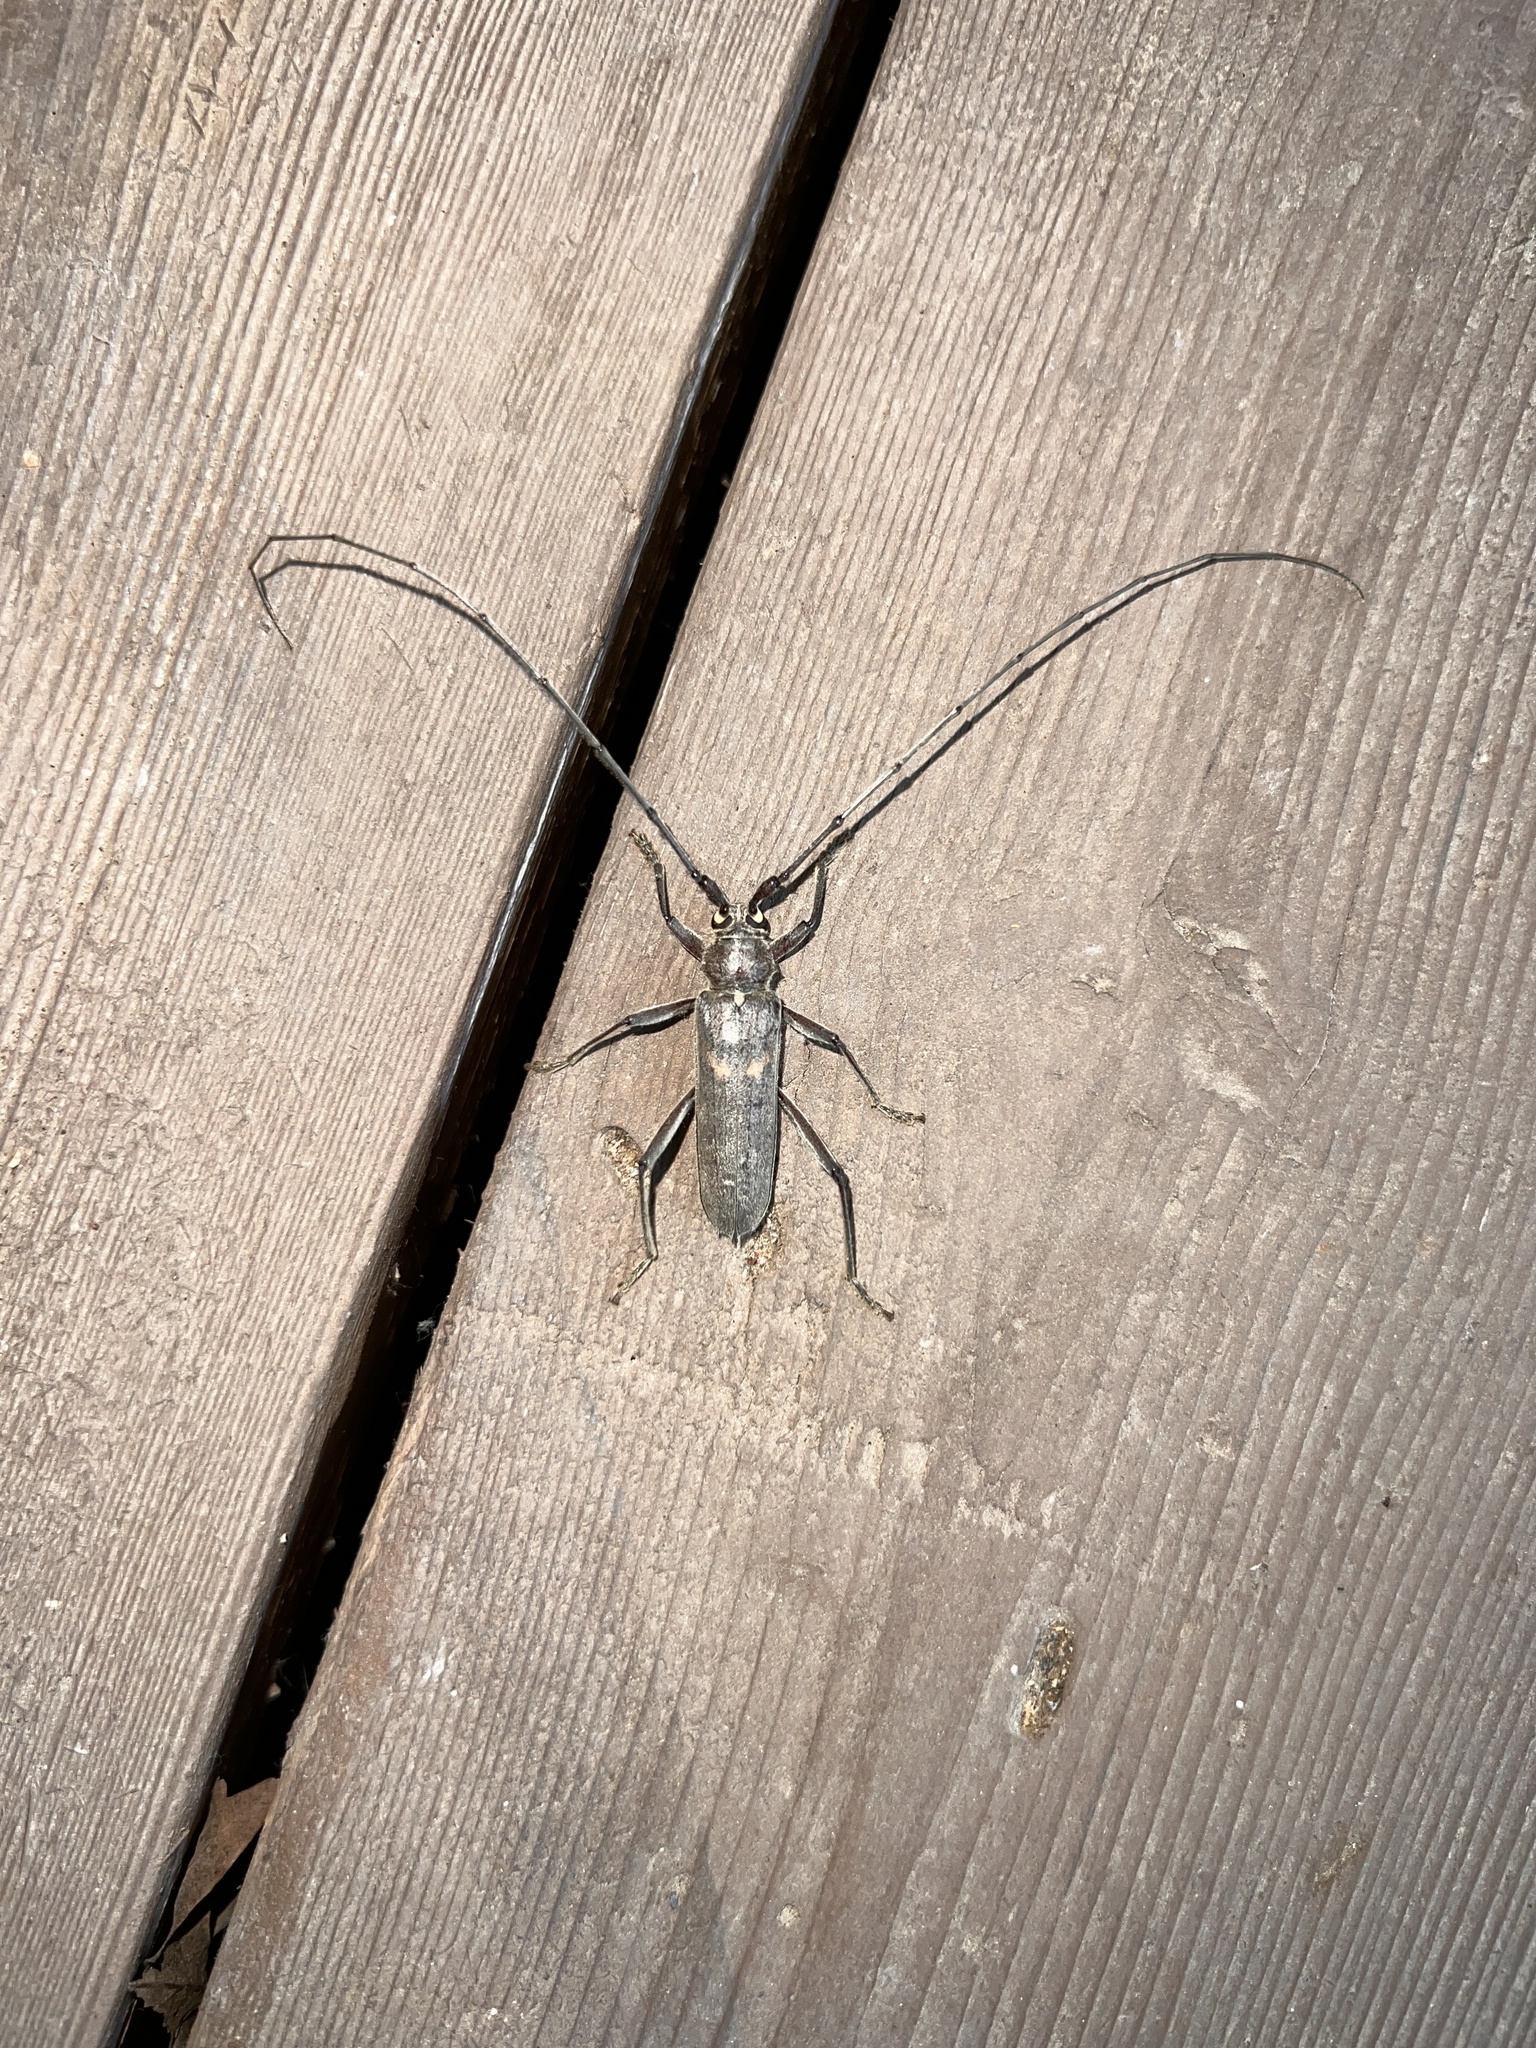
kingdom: Animalia
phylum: Arthropoda
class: Insecta
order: Coleoptera
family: Cerambycidae
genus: Knulliana
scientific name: Knulliana cincta
